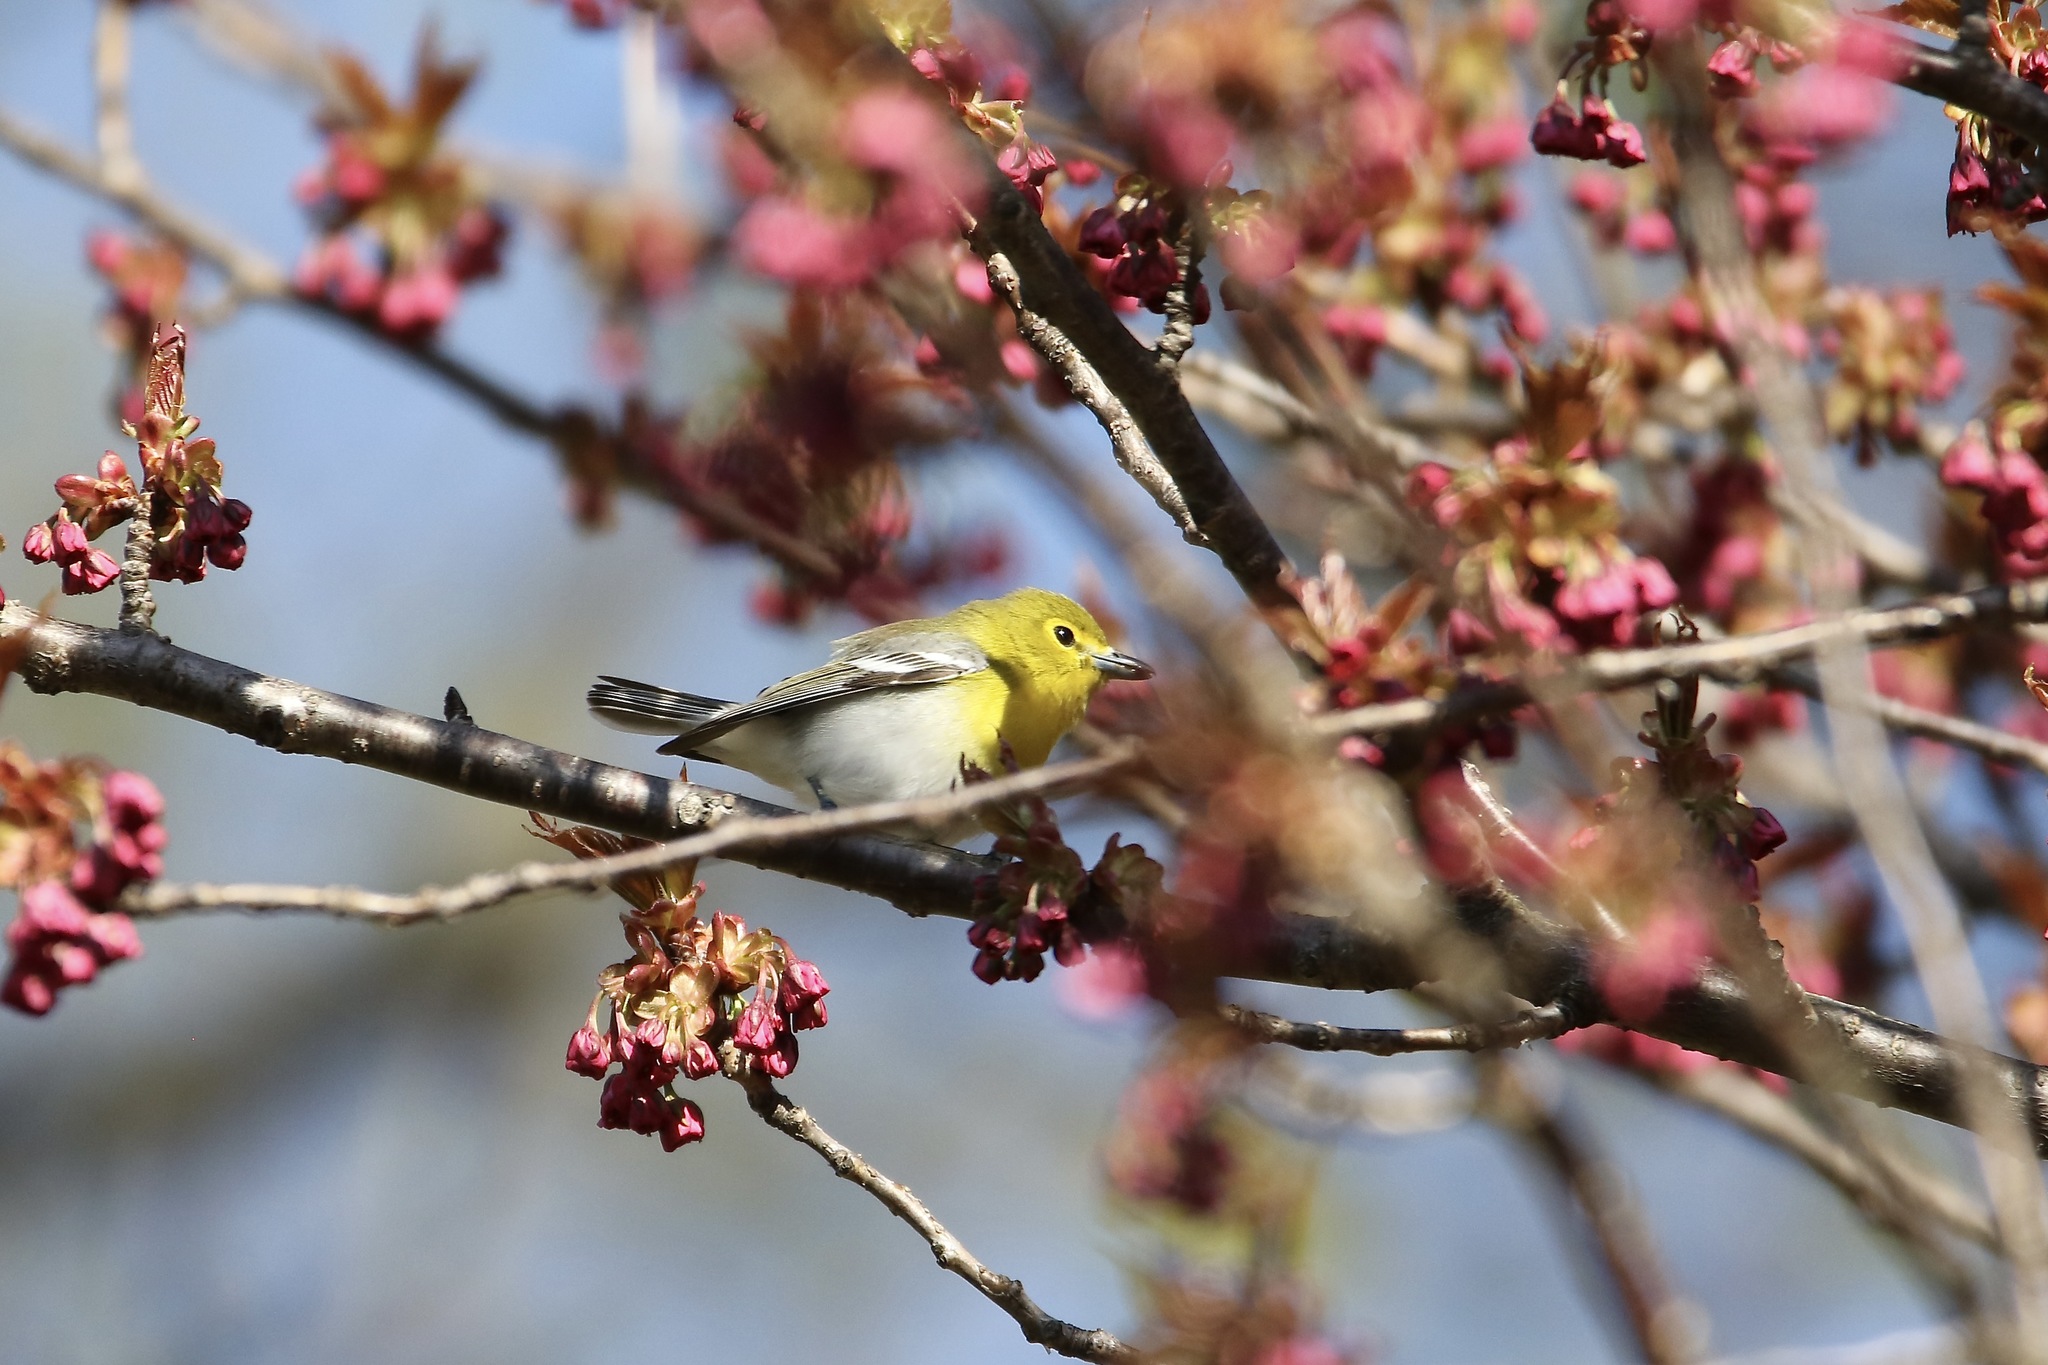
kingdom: Animalia
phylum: Chordata
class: Aves
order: Passeriformes
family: Vireonidae
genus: Vireo
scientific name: Vireo flavifrons
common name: Yellow-throated vireo
